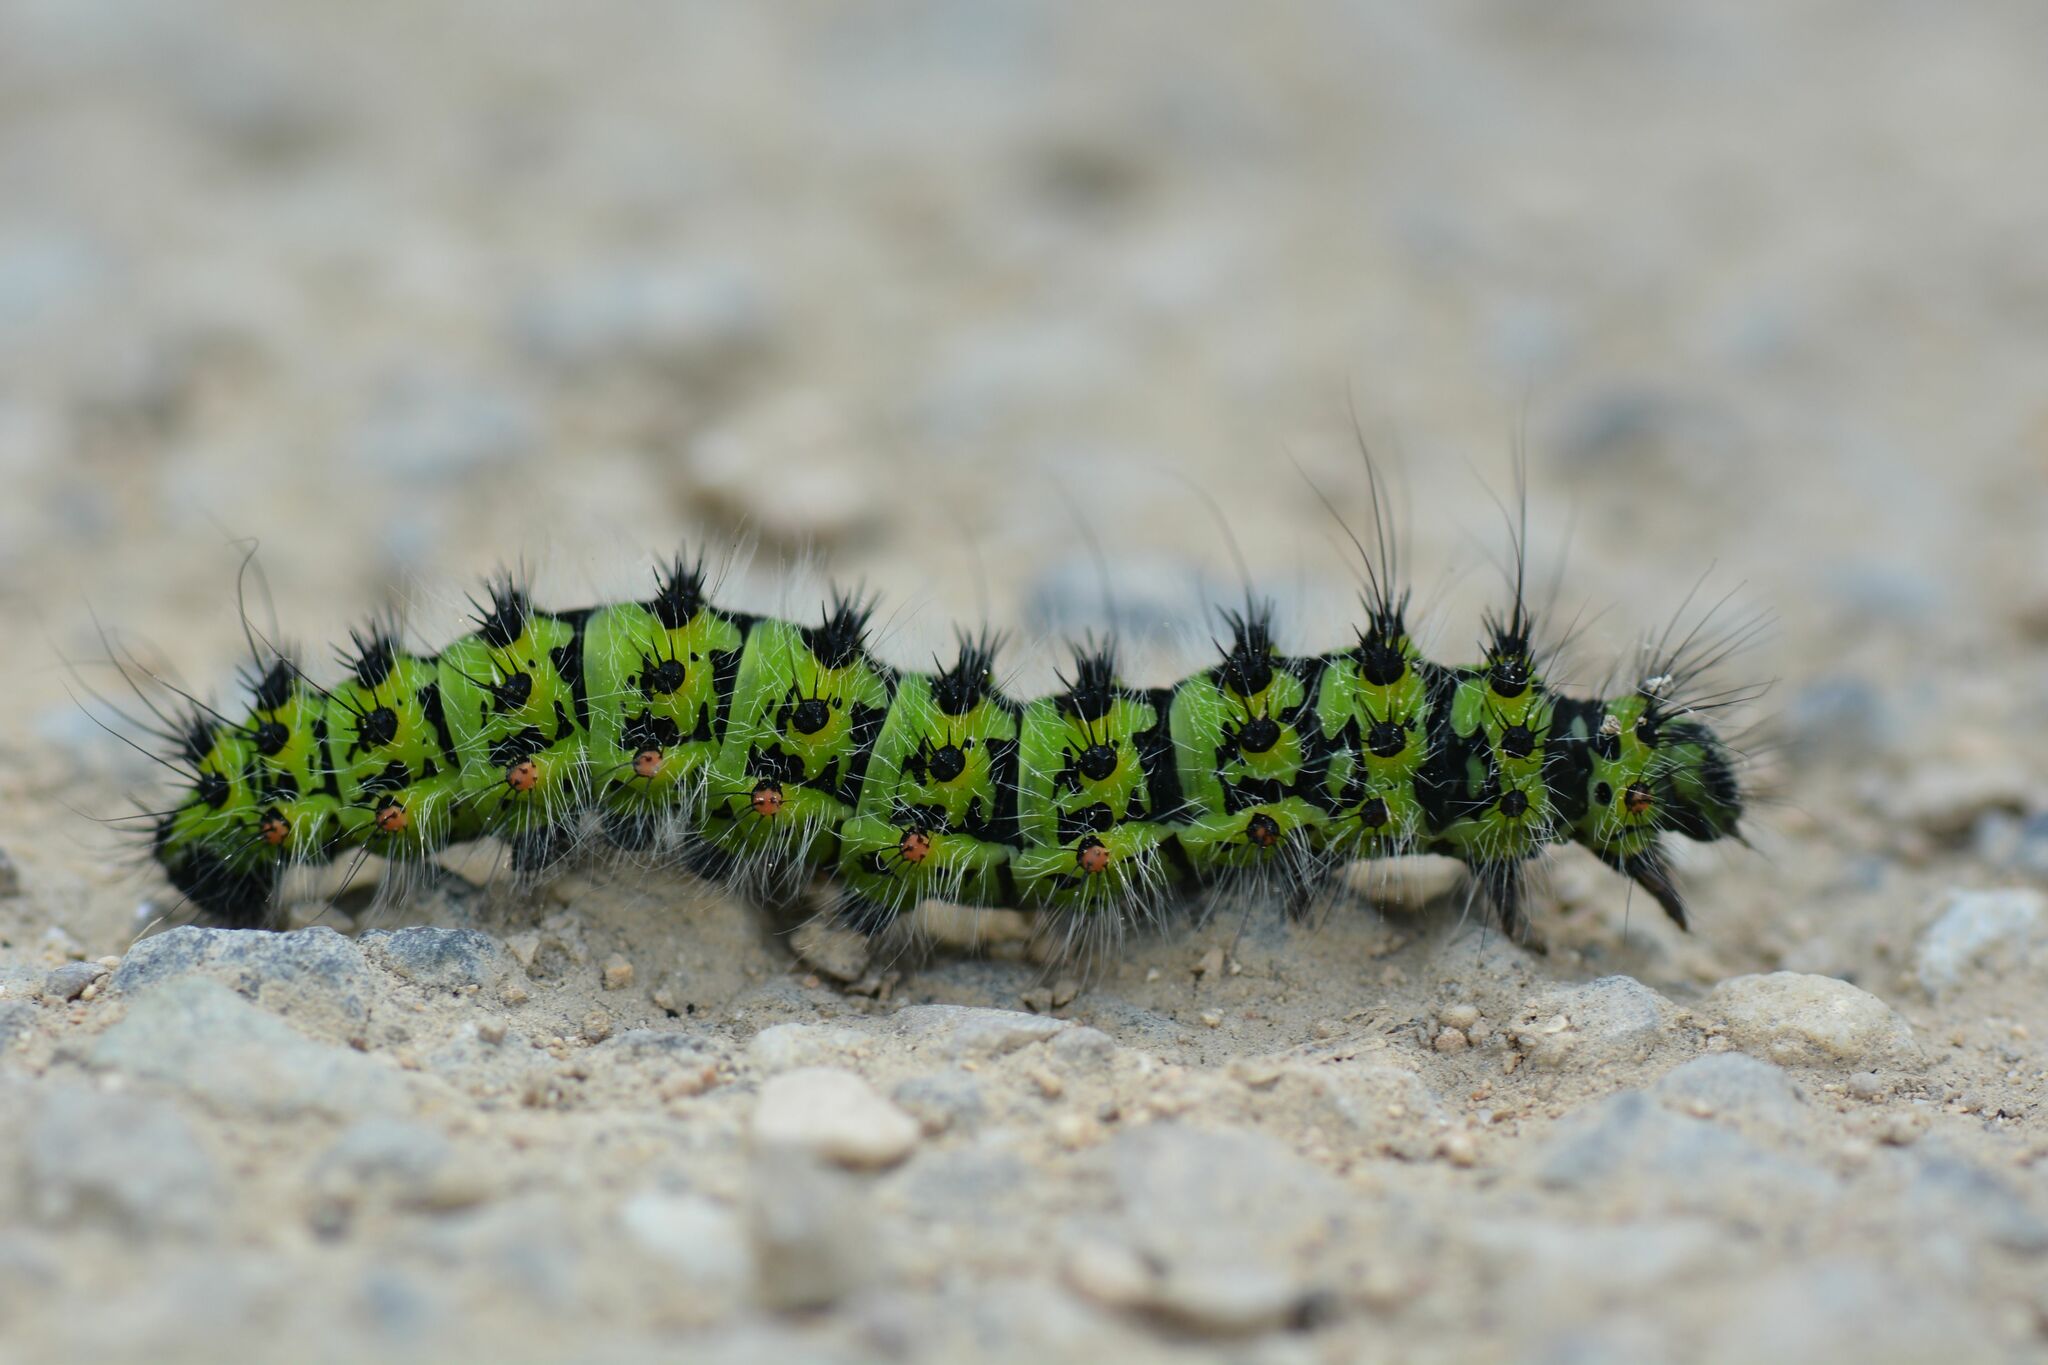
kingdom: Animalia
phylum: Arthropoda
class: Insecta
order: Lepidoptera
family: Saturniidae
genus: Saturnia
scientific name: Saturnia pavonia
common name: Emperor moth
